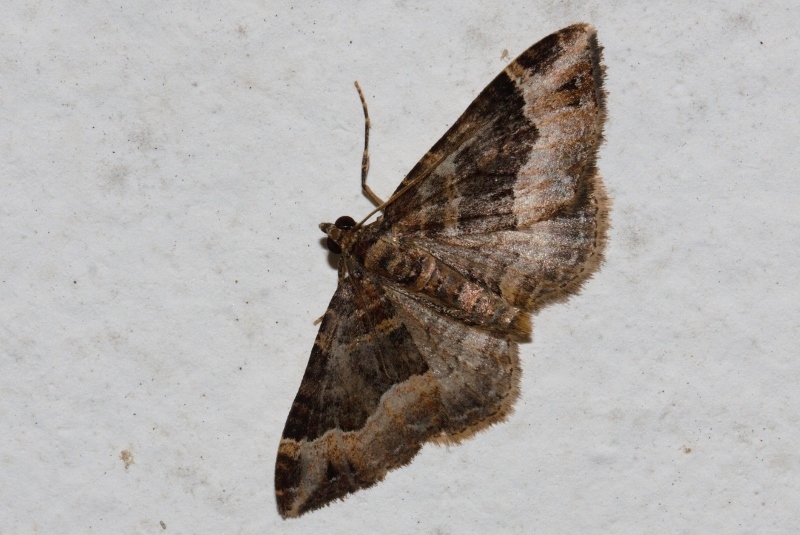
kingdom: Animalia
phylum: Arthropoda
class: Insecta
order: Lepidoptera
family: Geometridae
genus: Xanthorhoe
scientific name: Xanthorhoe poseata
